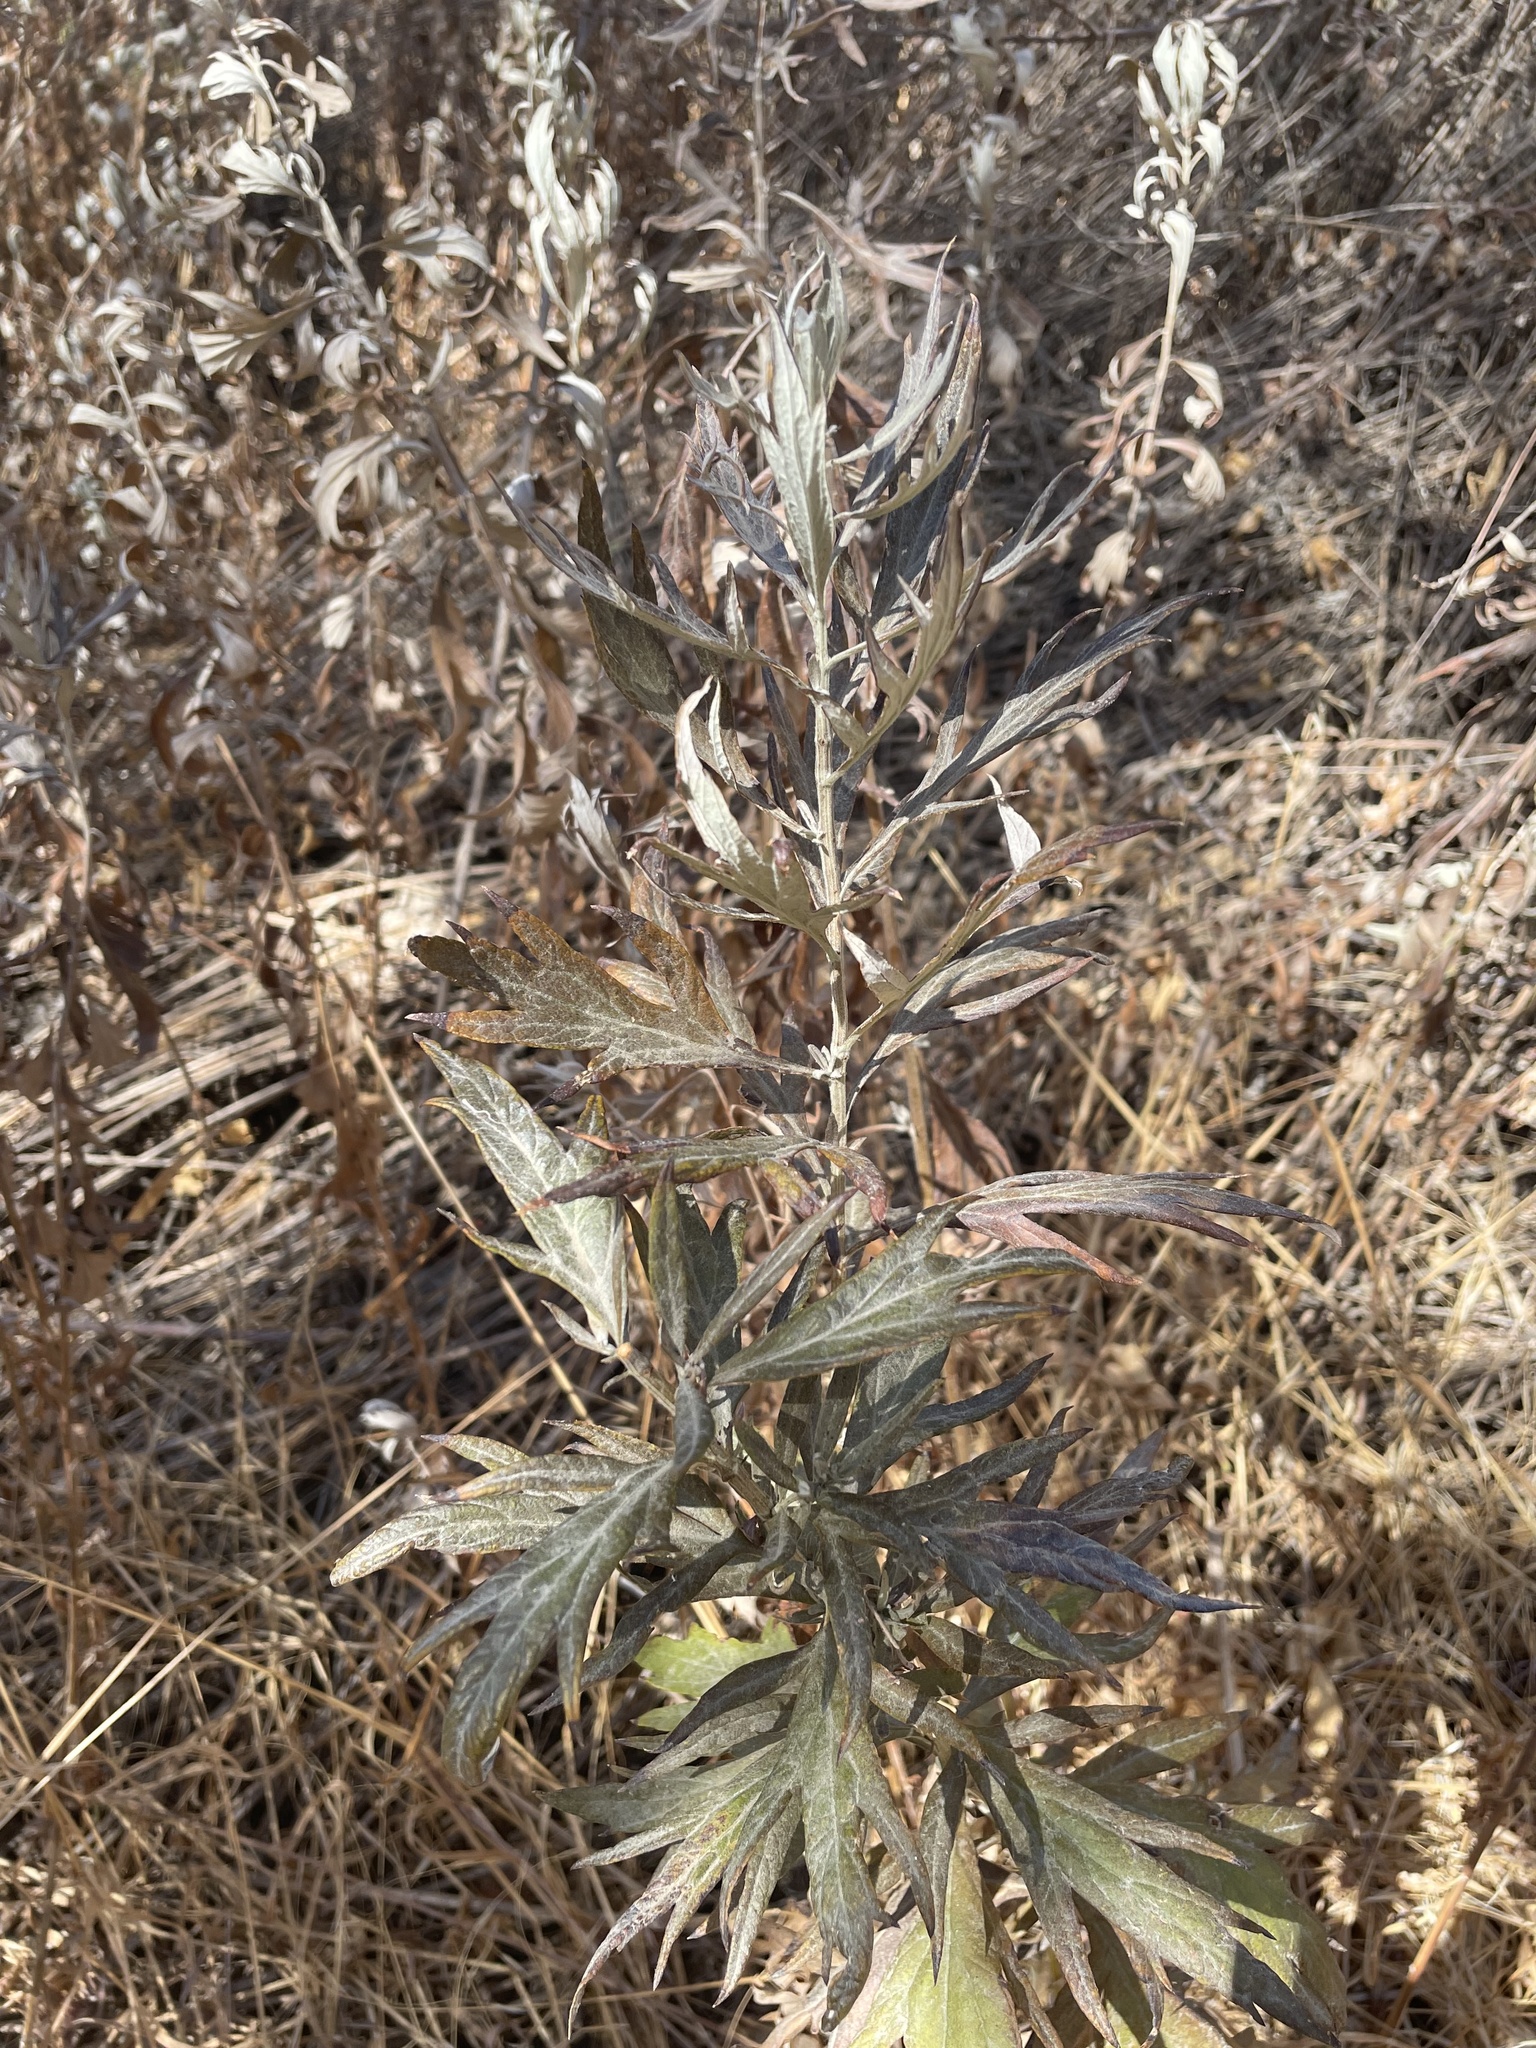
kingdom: Plantae
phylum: Tracheophyta
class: Magnoliopsida
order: Asterales
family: Asteraceae
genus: Artemisia
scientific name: Artemisia douglasiana
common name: Northwest mugwort
